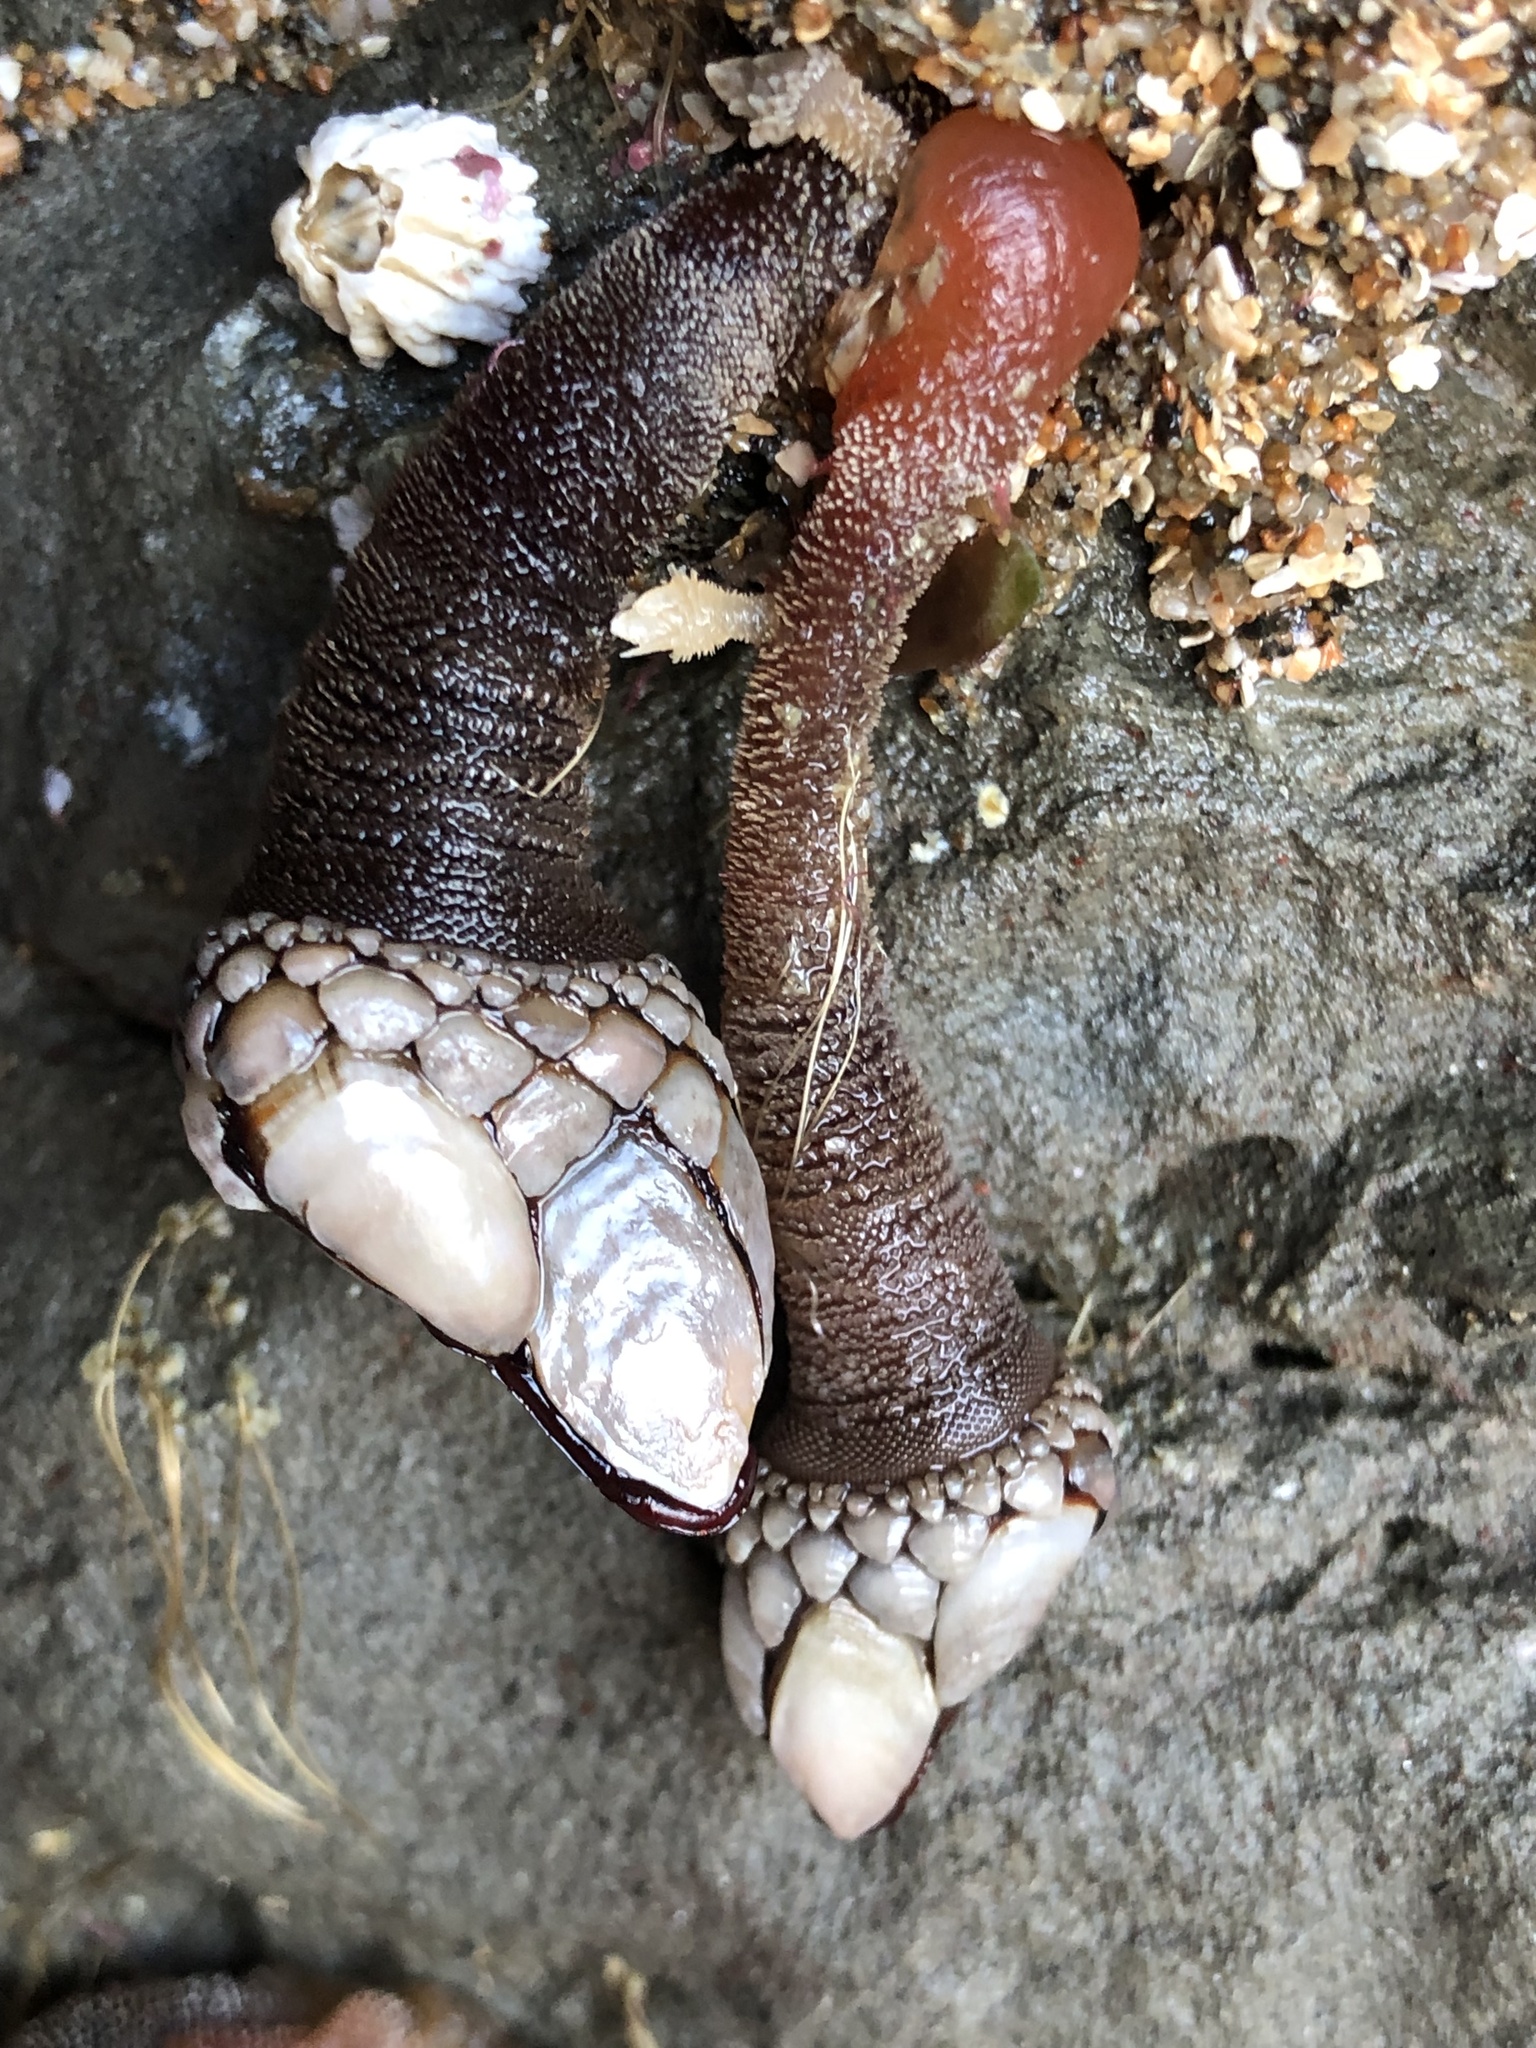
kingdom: Animalia
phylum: Arthropoda
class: Maxillopoda
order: Pedunculata
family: Pollicipedidae
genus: Pollicipes
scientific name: Pollicipes polymerus
